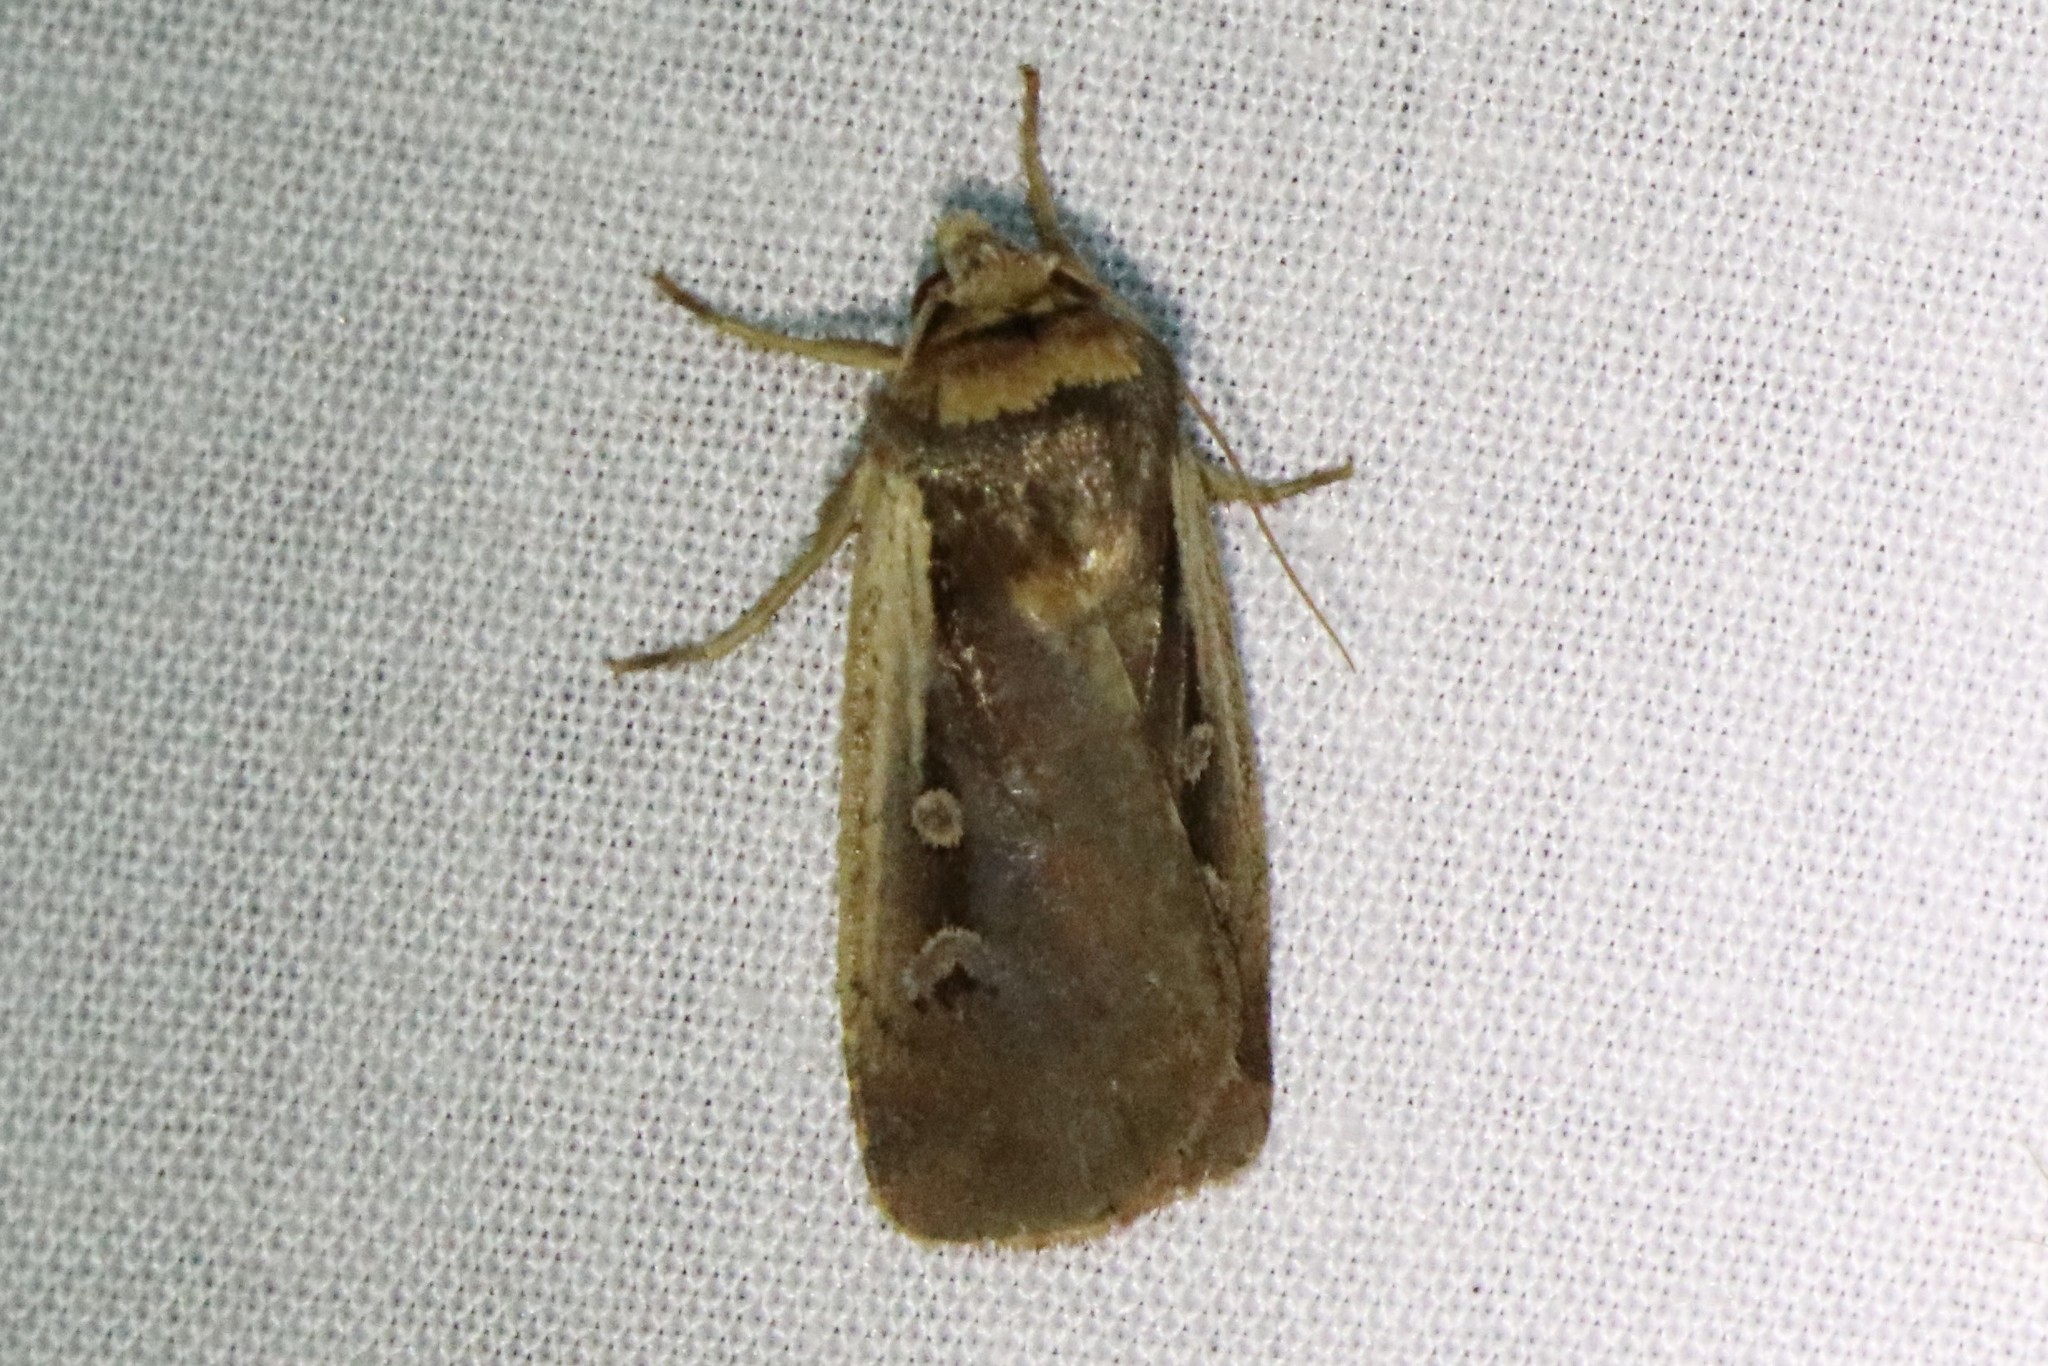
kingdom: Animalia
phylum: Arthropoda
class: Insecta
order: Lepidoptera
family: Noctuidae
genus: Ochropleura
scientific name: Ochropleura implecta
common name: Flame-shouldered dart
